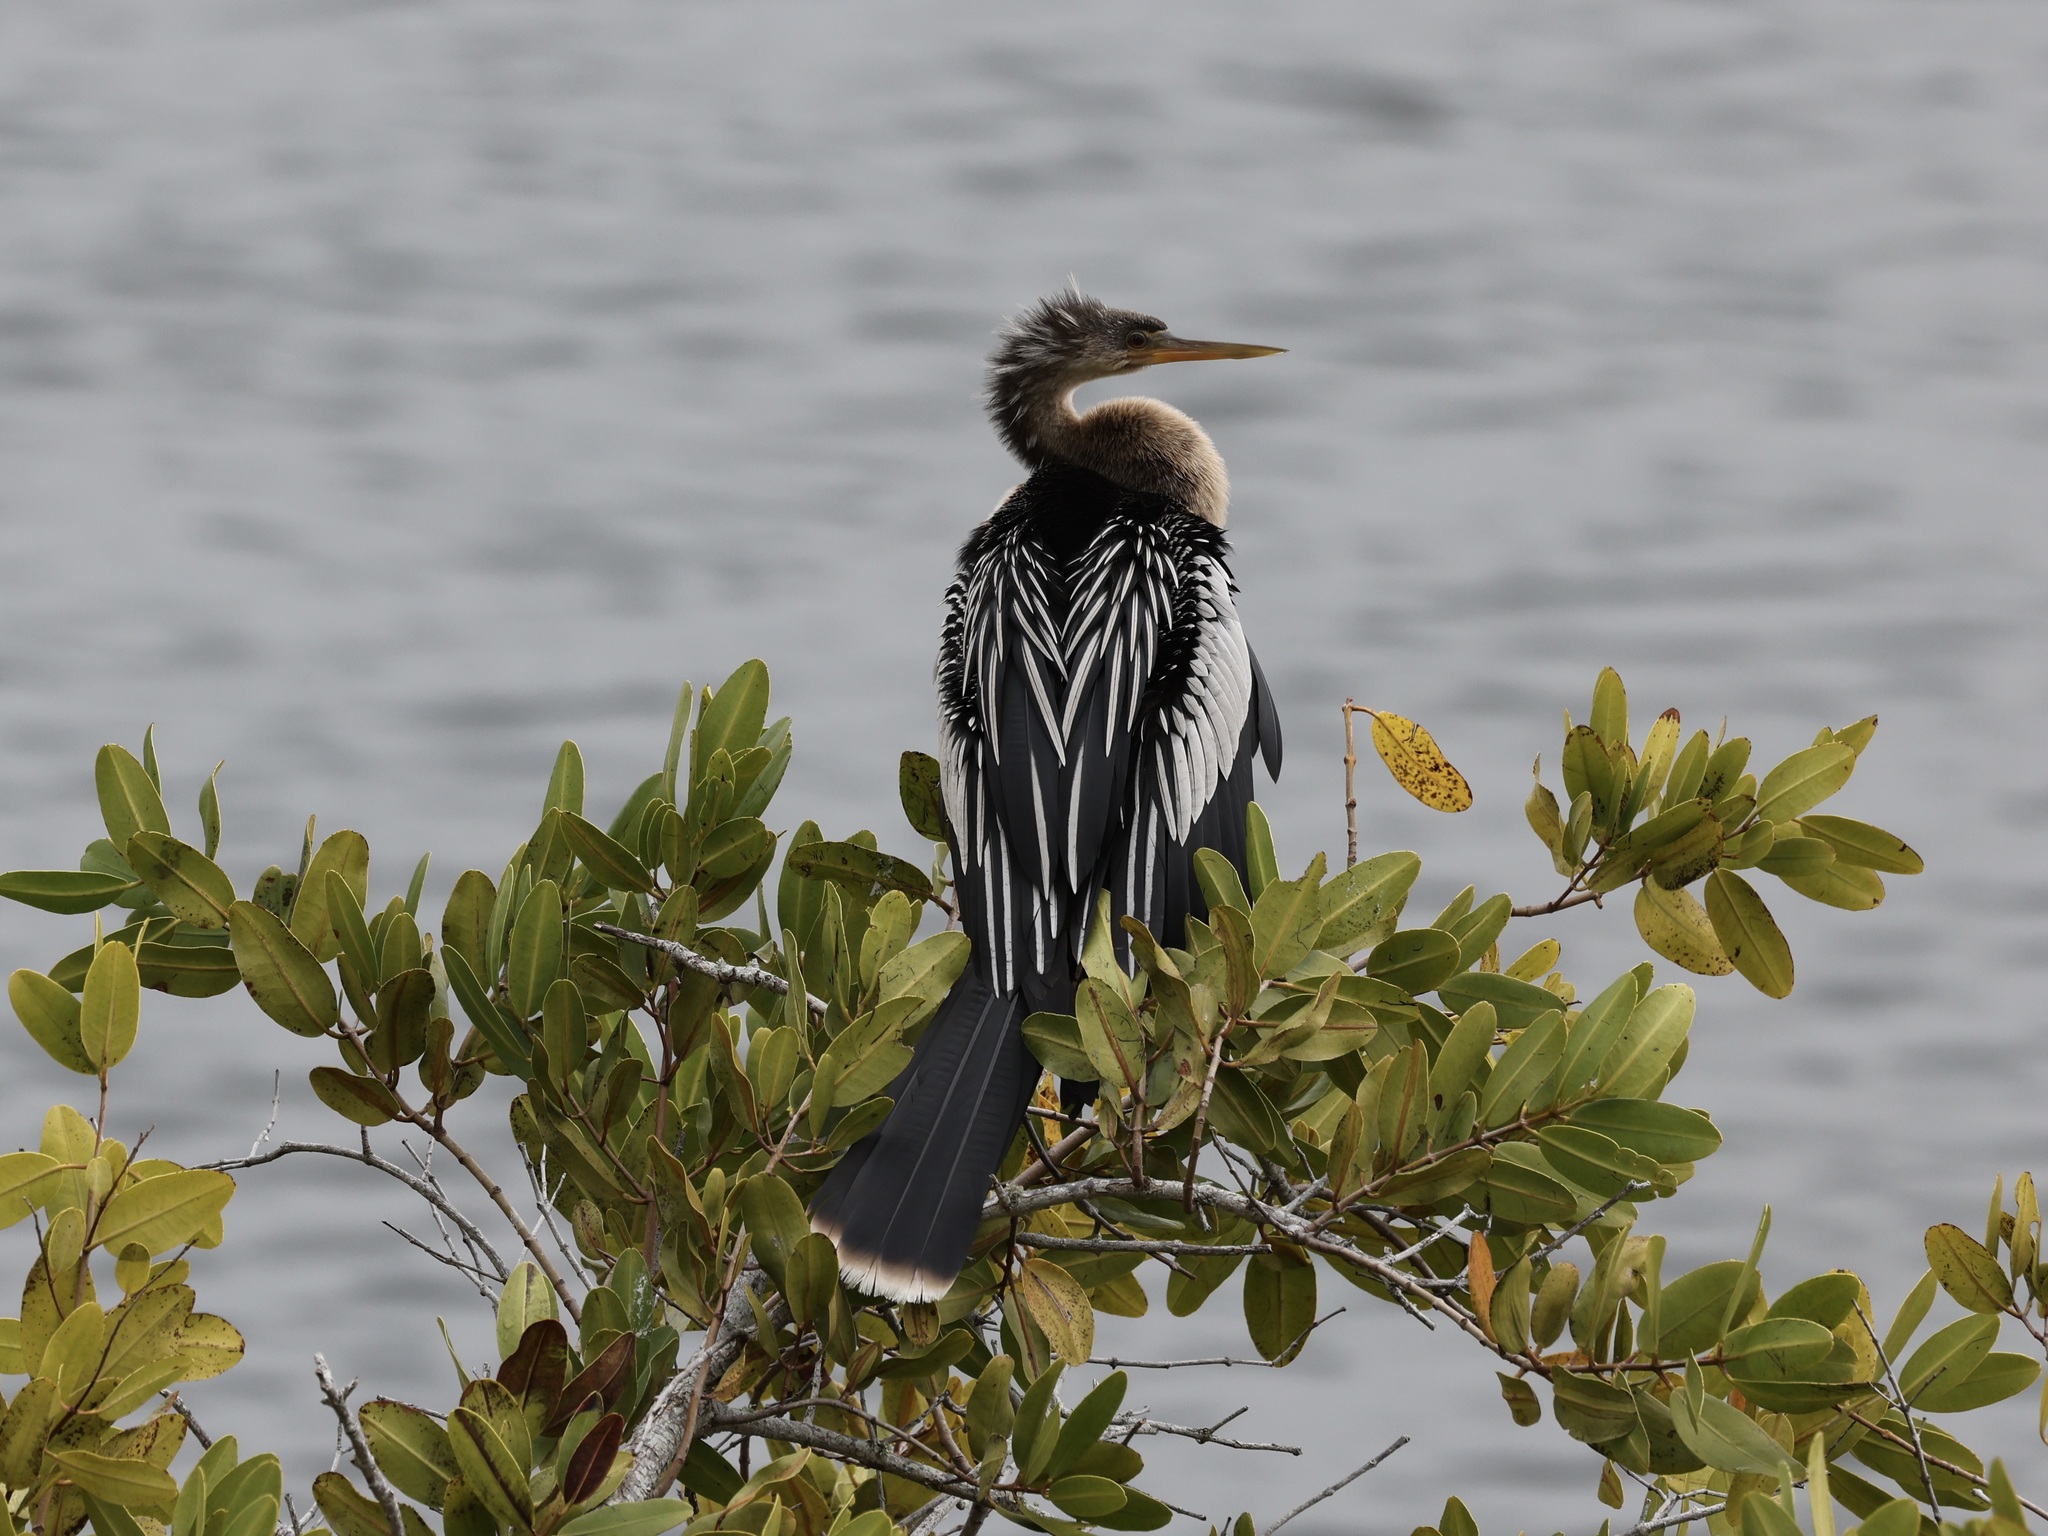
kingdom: Animalia
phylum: Chordata
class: Aves
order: Suliformes
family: Anhingidae
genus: Anhinga
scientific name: Anhinga anhinga
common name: Anhinga
